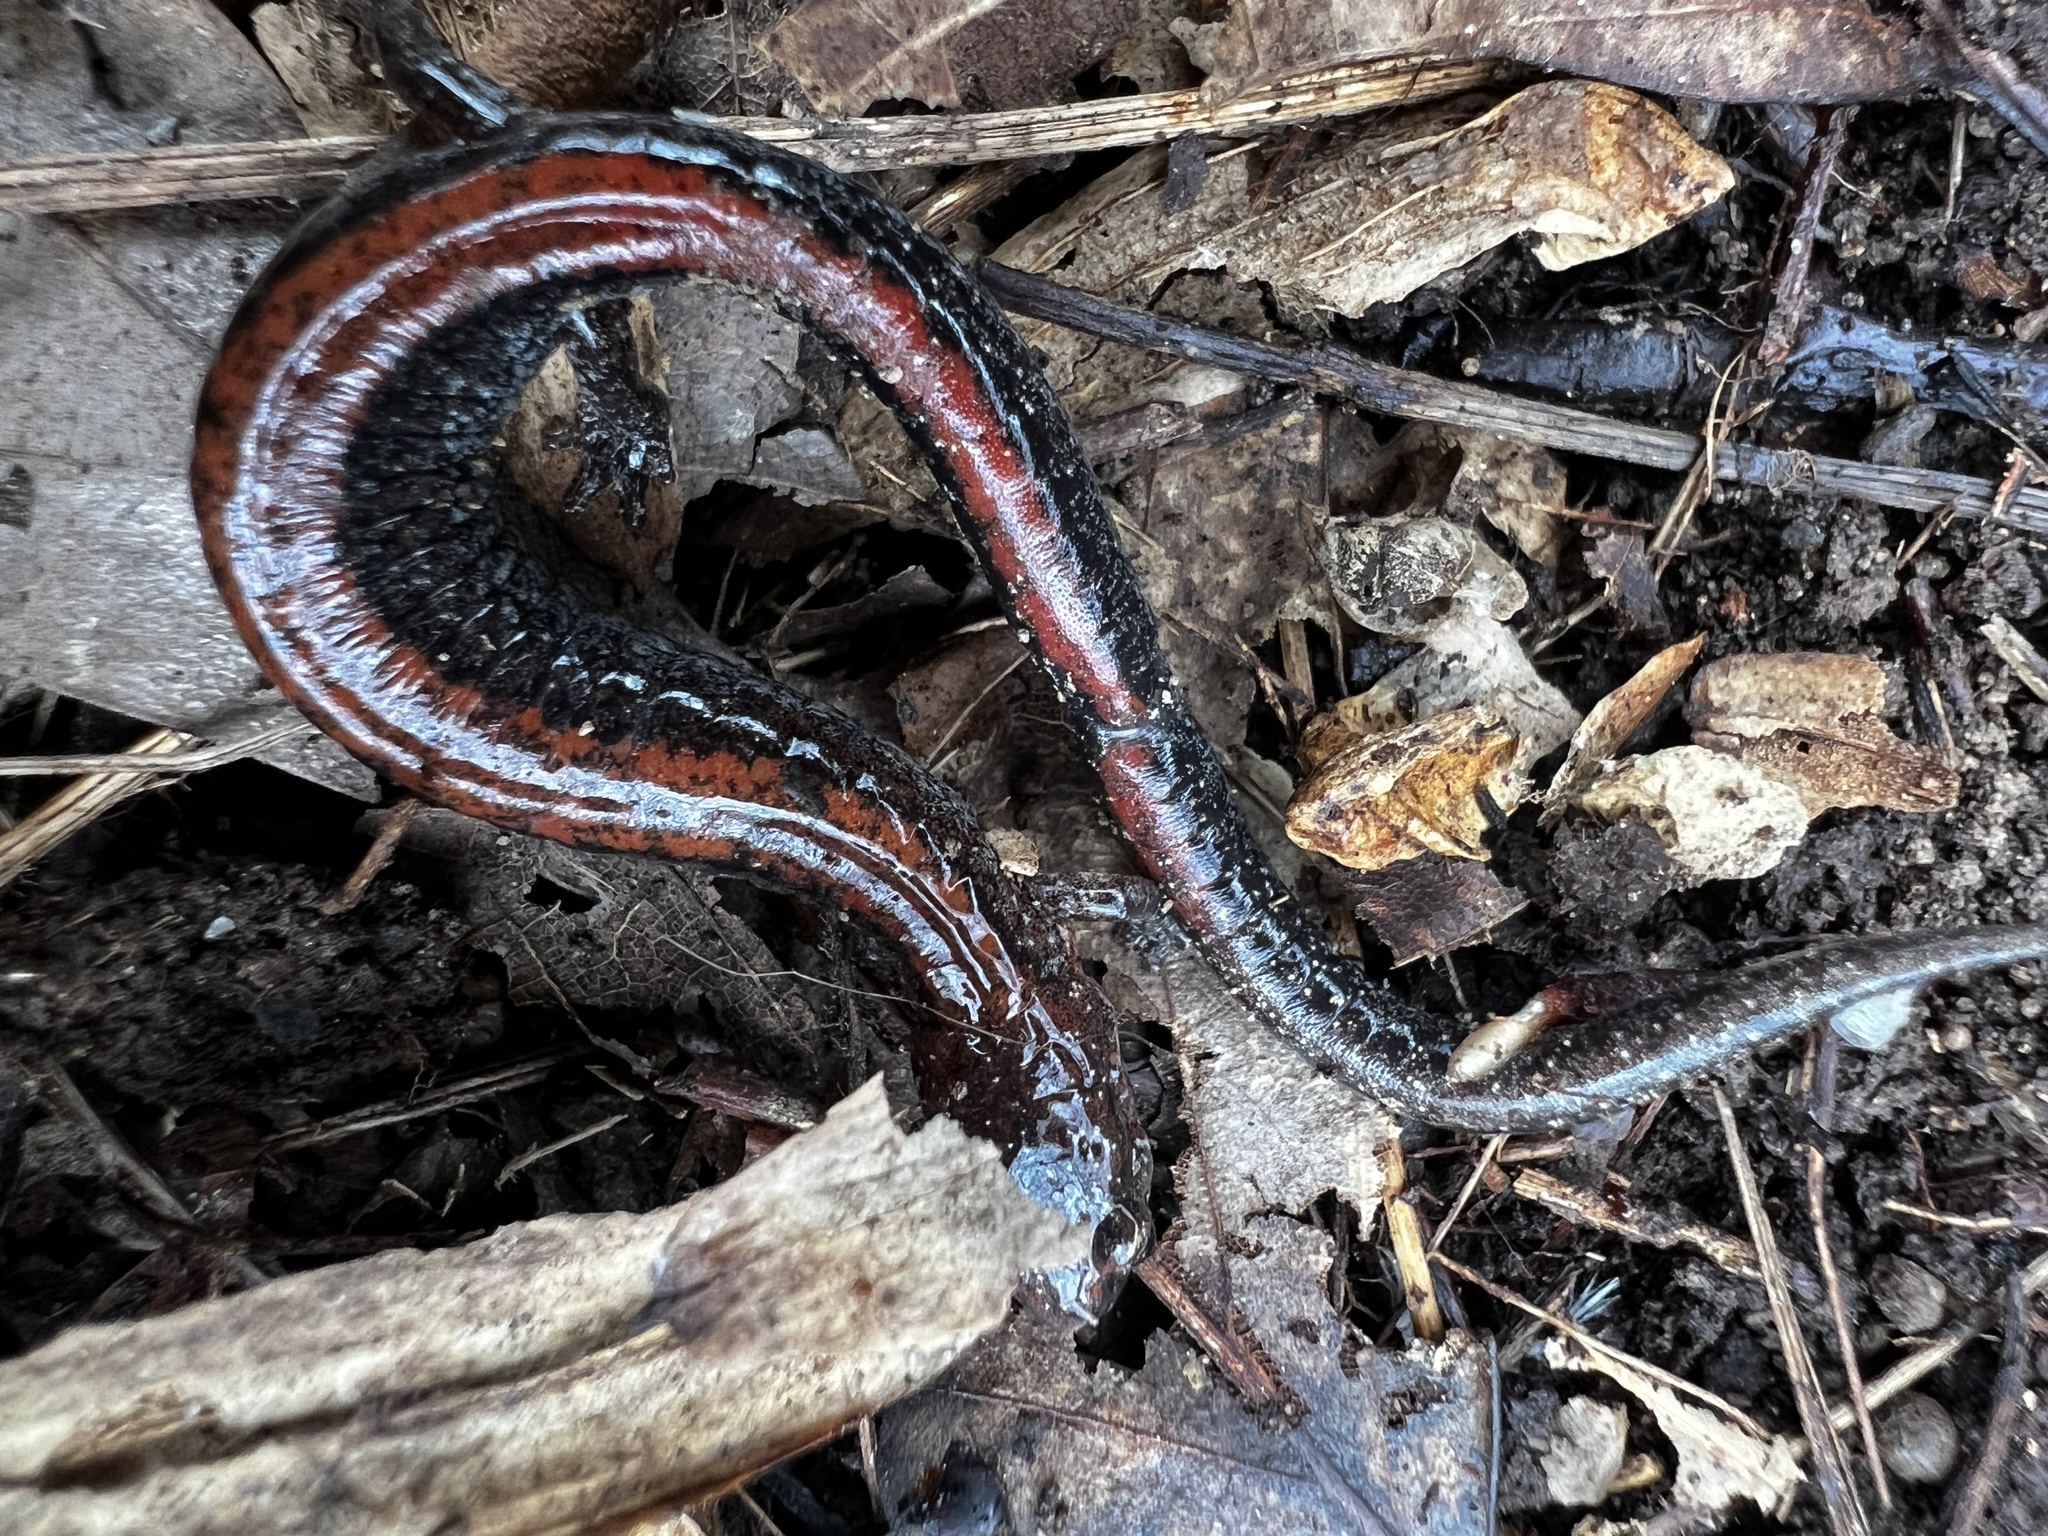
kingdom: Animalia
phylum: Chordata
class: Amphibia
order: Caudata
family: Plethodontidae
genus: Plethodon
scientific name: Plethodon cinereus
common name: Redback salamander
